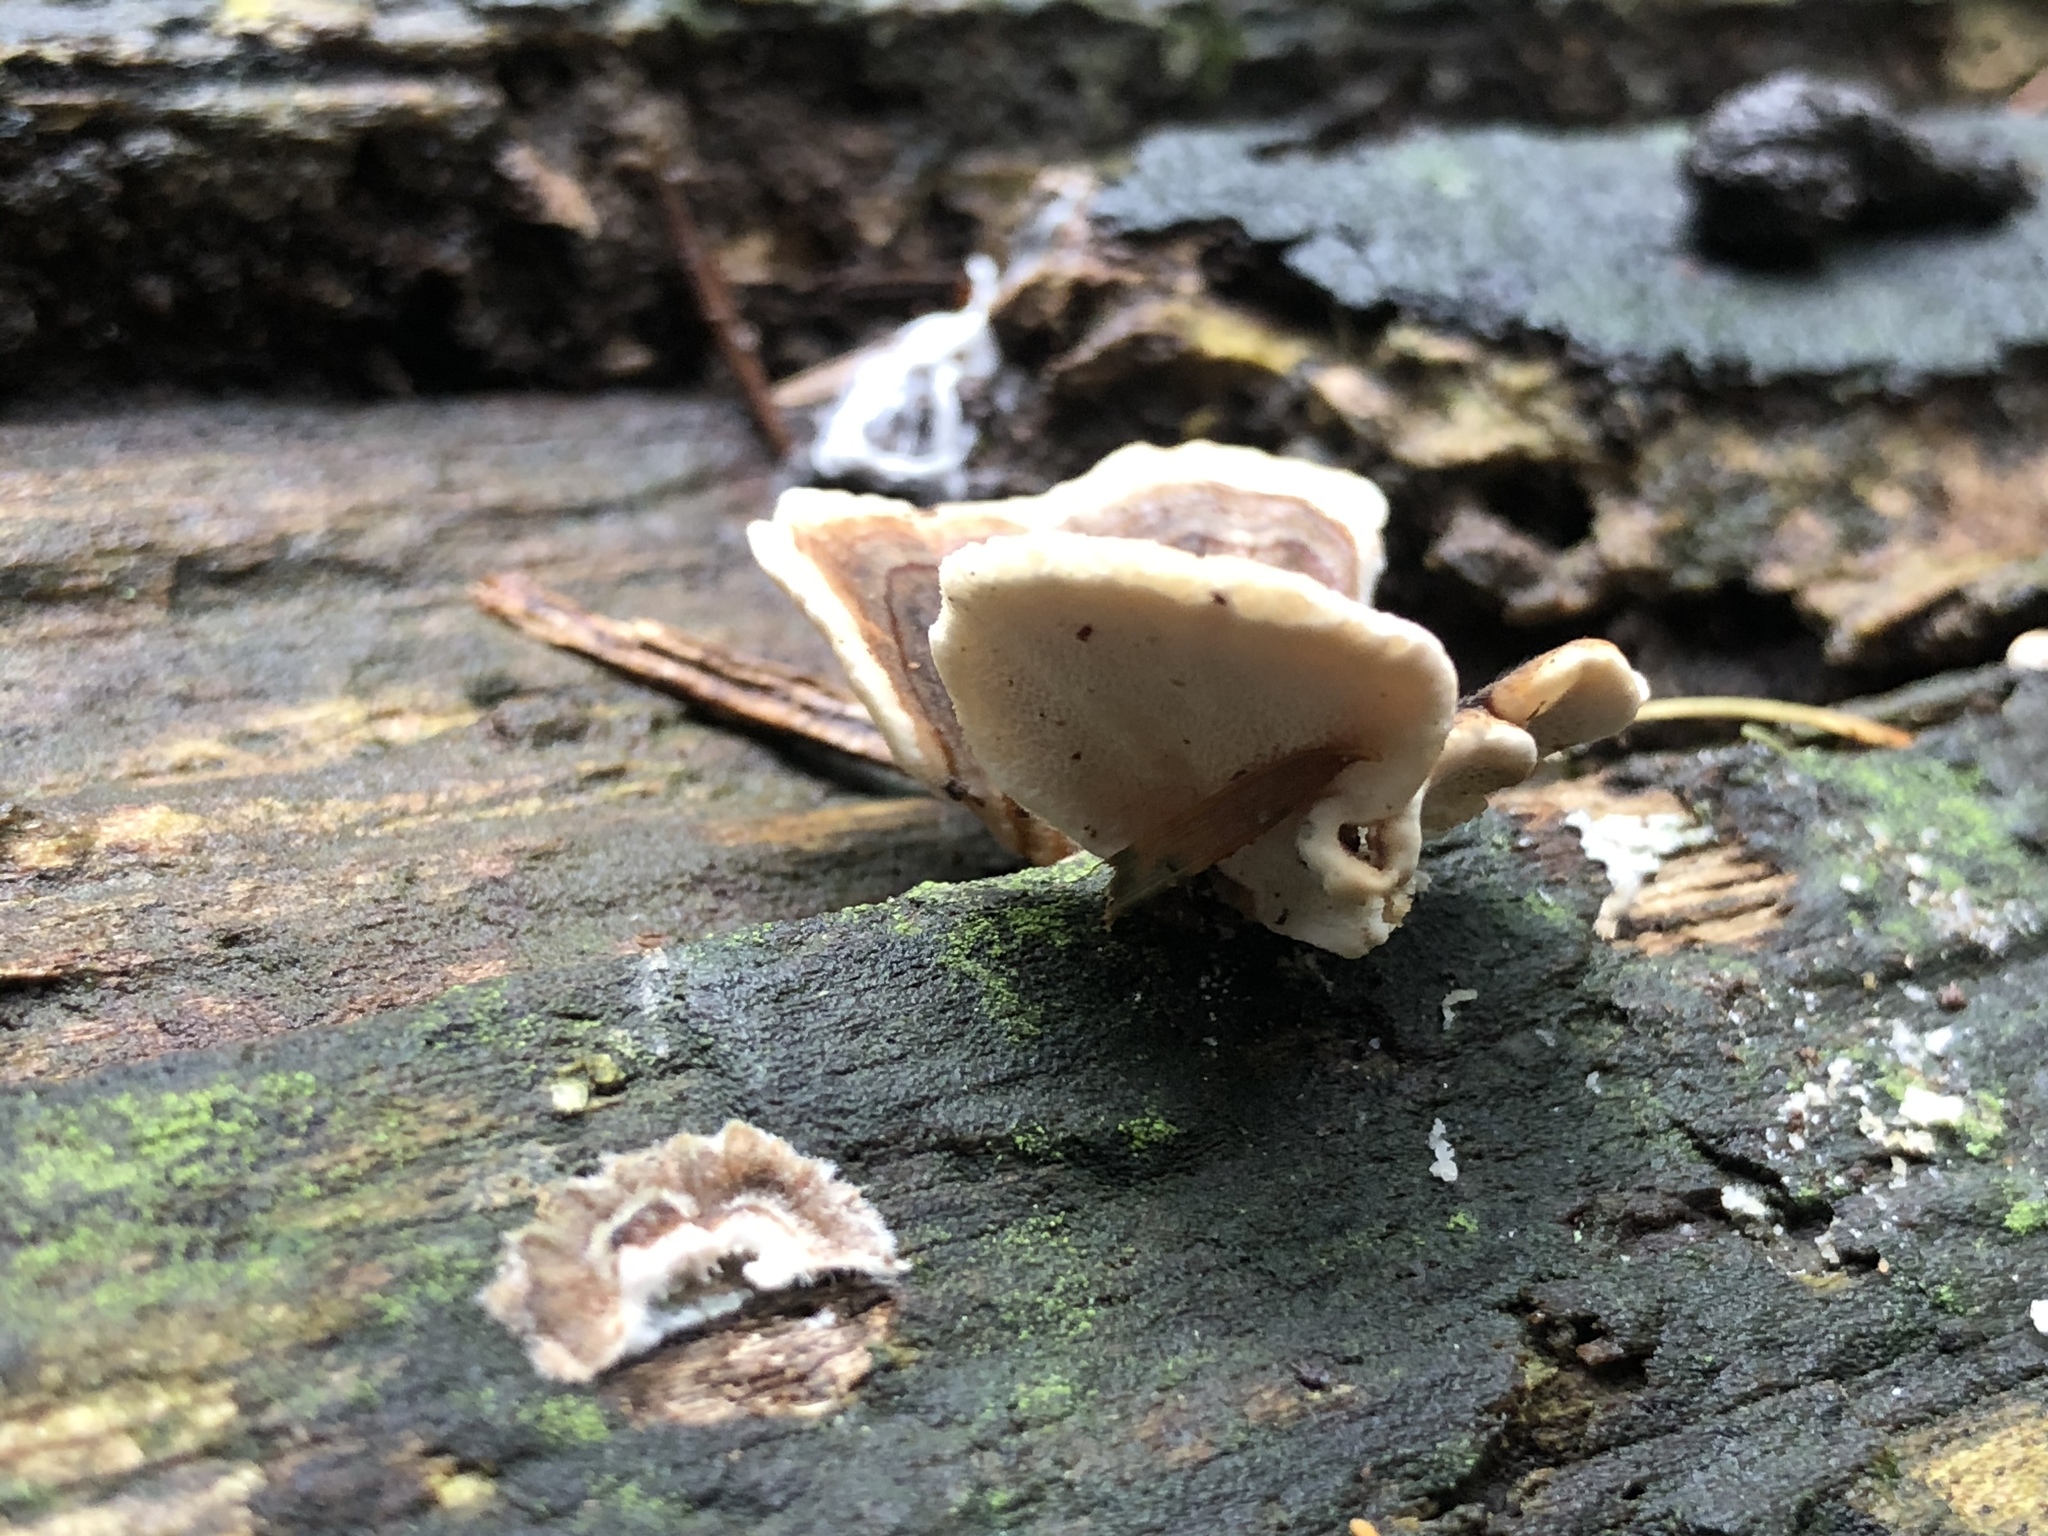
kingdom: Fungi
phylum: Basidiomycota
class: Agaricomycetes
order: Polyporales
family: Polyporaceae
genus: Trametes
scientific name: Trametes versicolor
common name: Turkeytail
